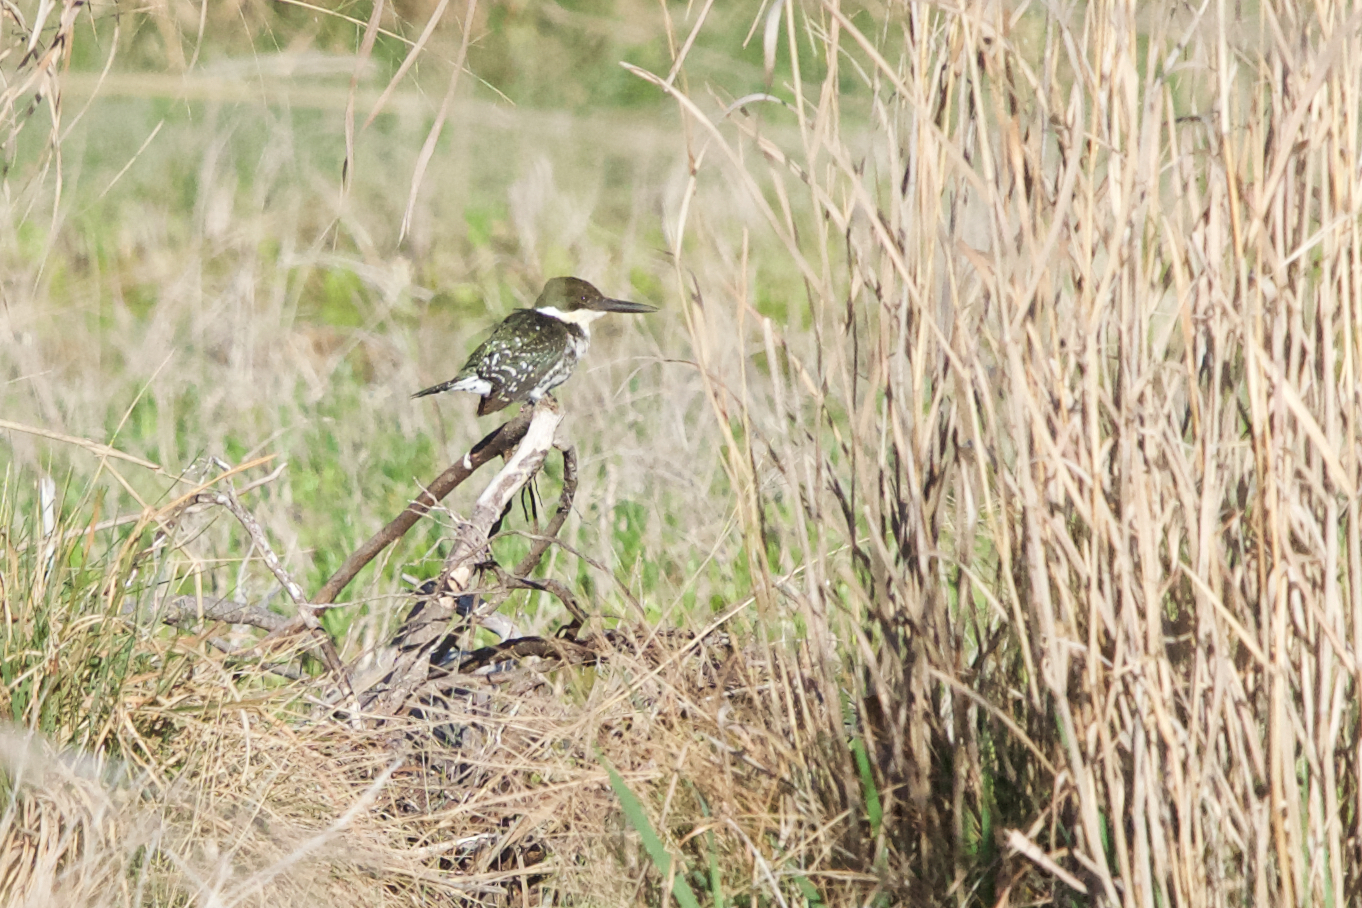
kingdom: Animalia
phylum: Chordata
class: Aves
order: Coraciiformes
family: Alcedinidae
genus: Chloroceryle
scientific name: Chloroceryle americana
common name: Green kingfisher
